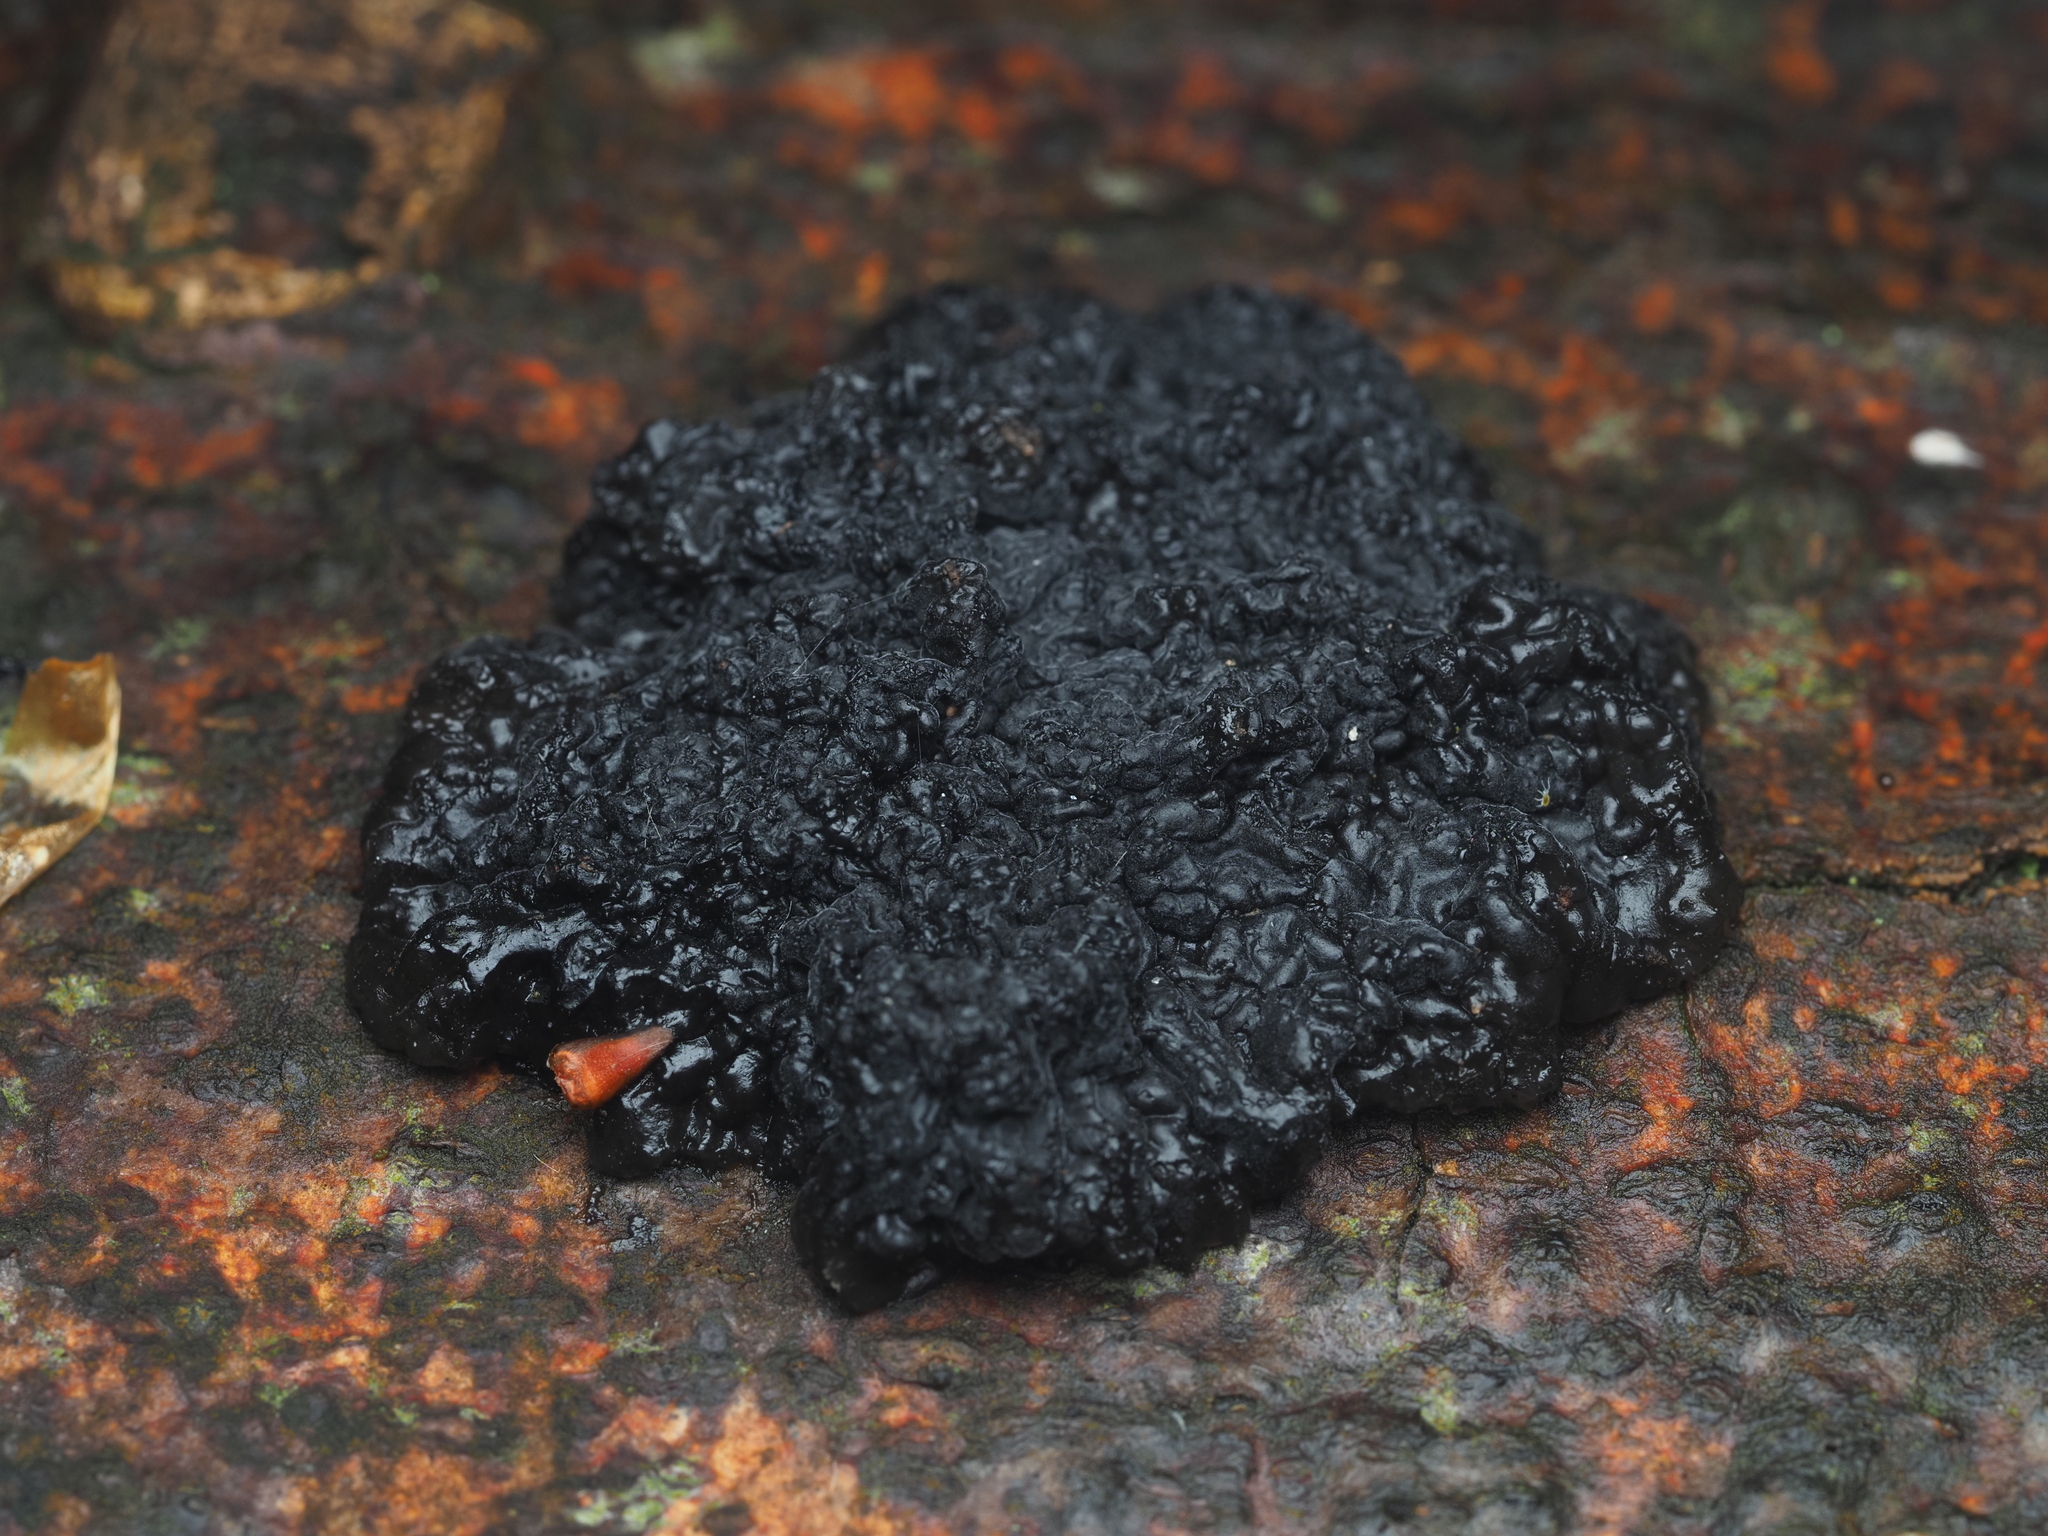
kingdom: Fungi
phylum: Basidiomycota
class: Agaricomycetes
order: Auriculariales
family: Auriculariaceae
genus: Exidia
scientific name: Exidia nigricans
